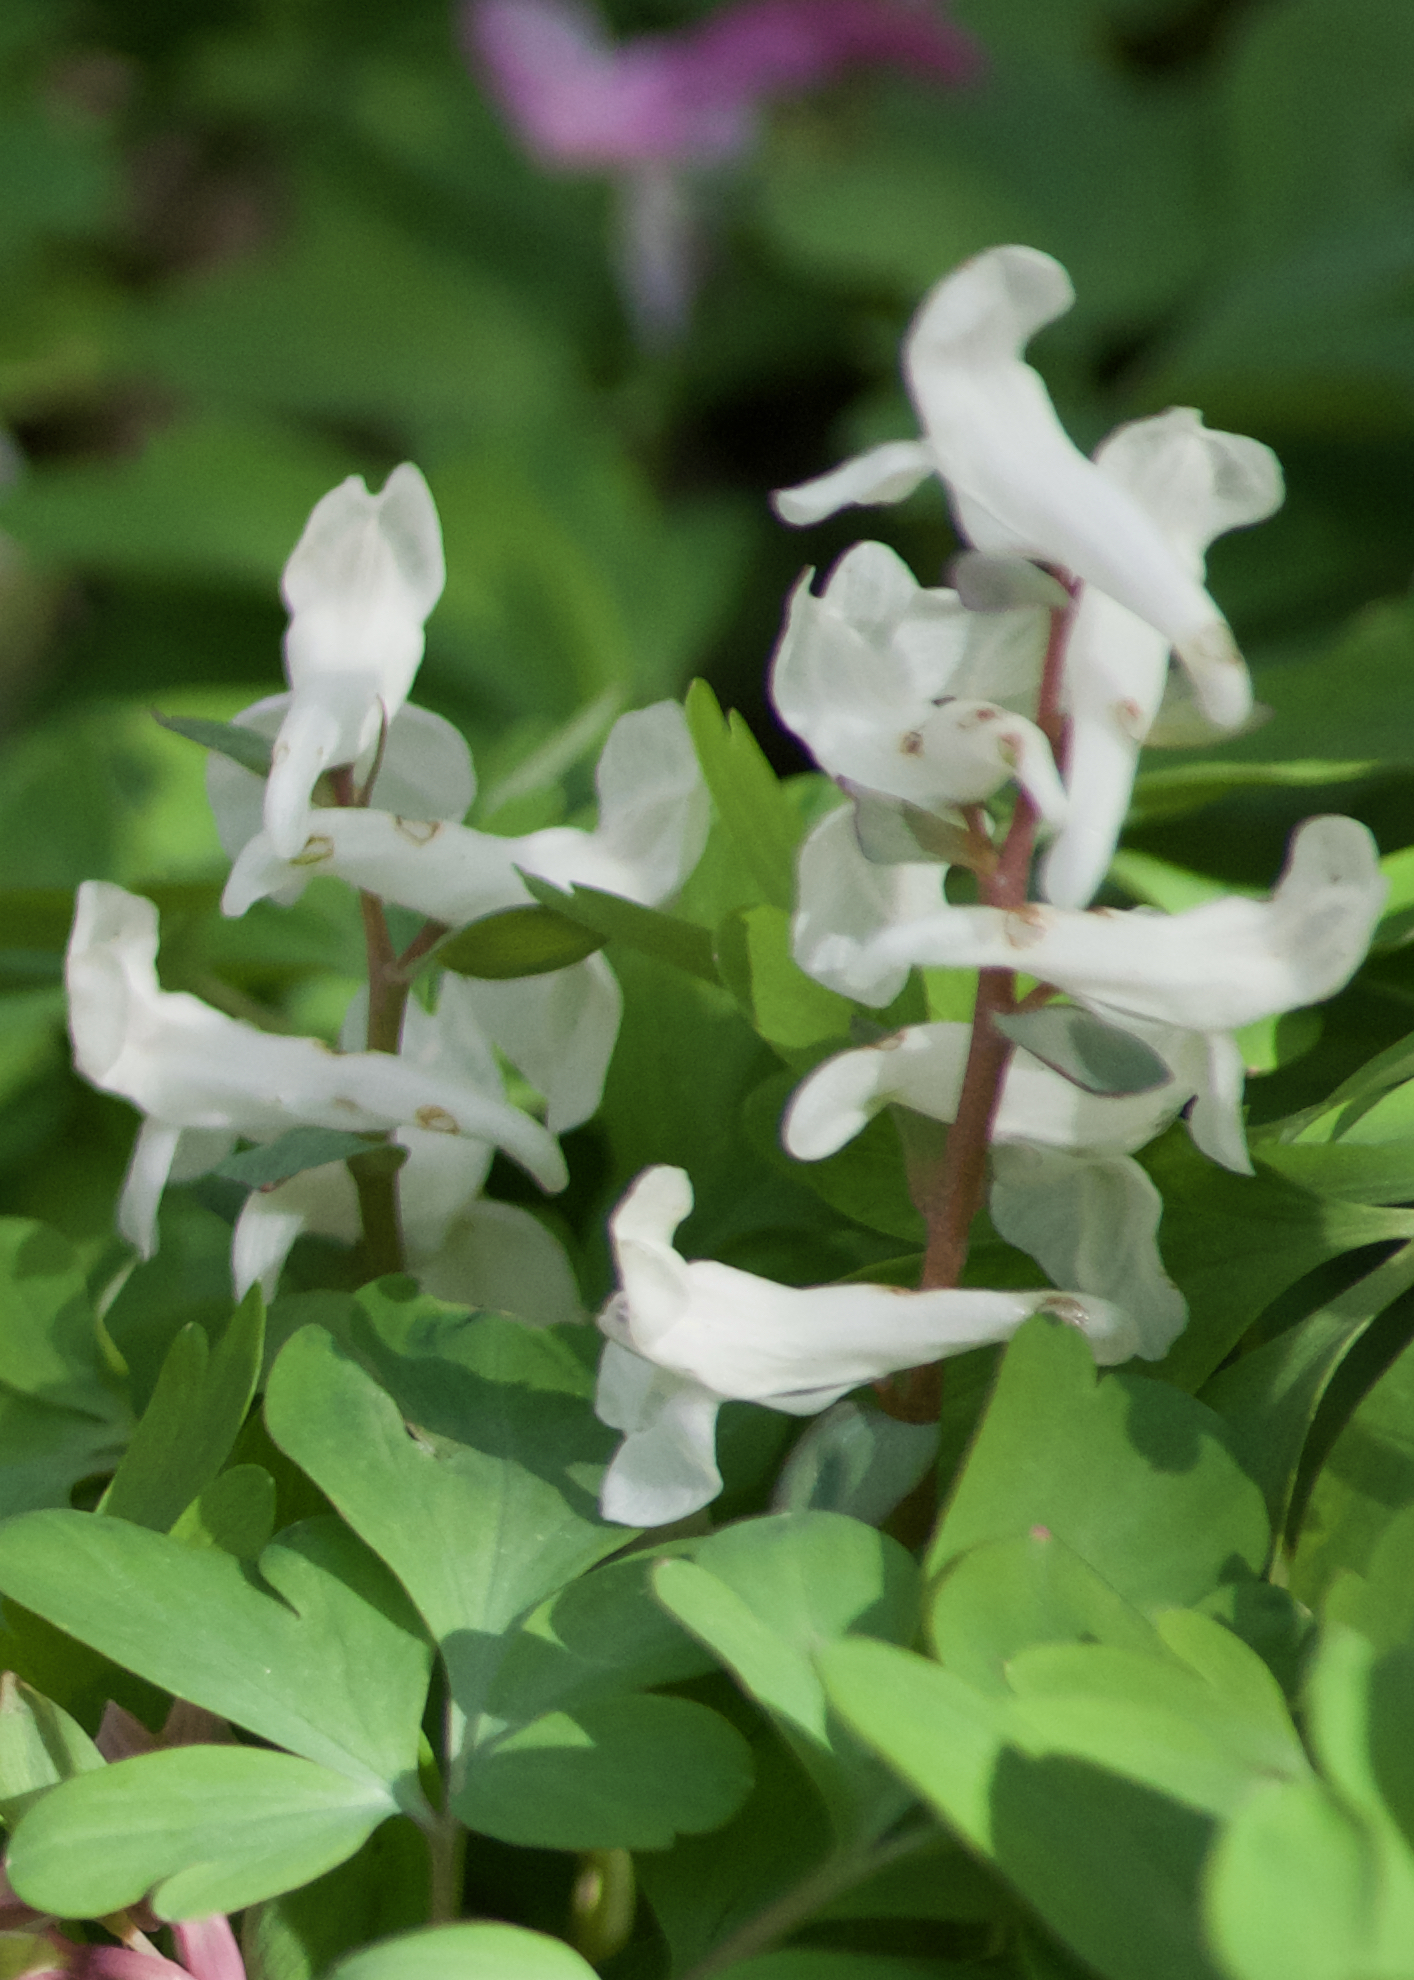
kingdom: Plantae
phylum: Tracheophyta
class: Magnoliopsida
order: Ranunculales
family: Papaveraceae
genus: Corydalis
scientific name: Corydalis cava
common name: Hollowroot
